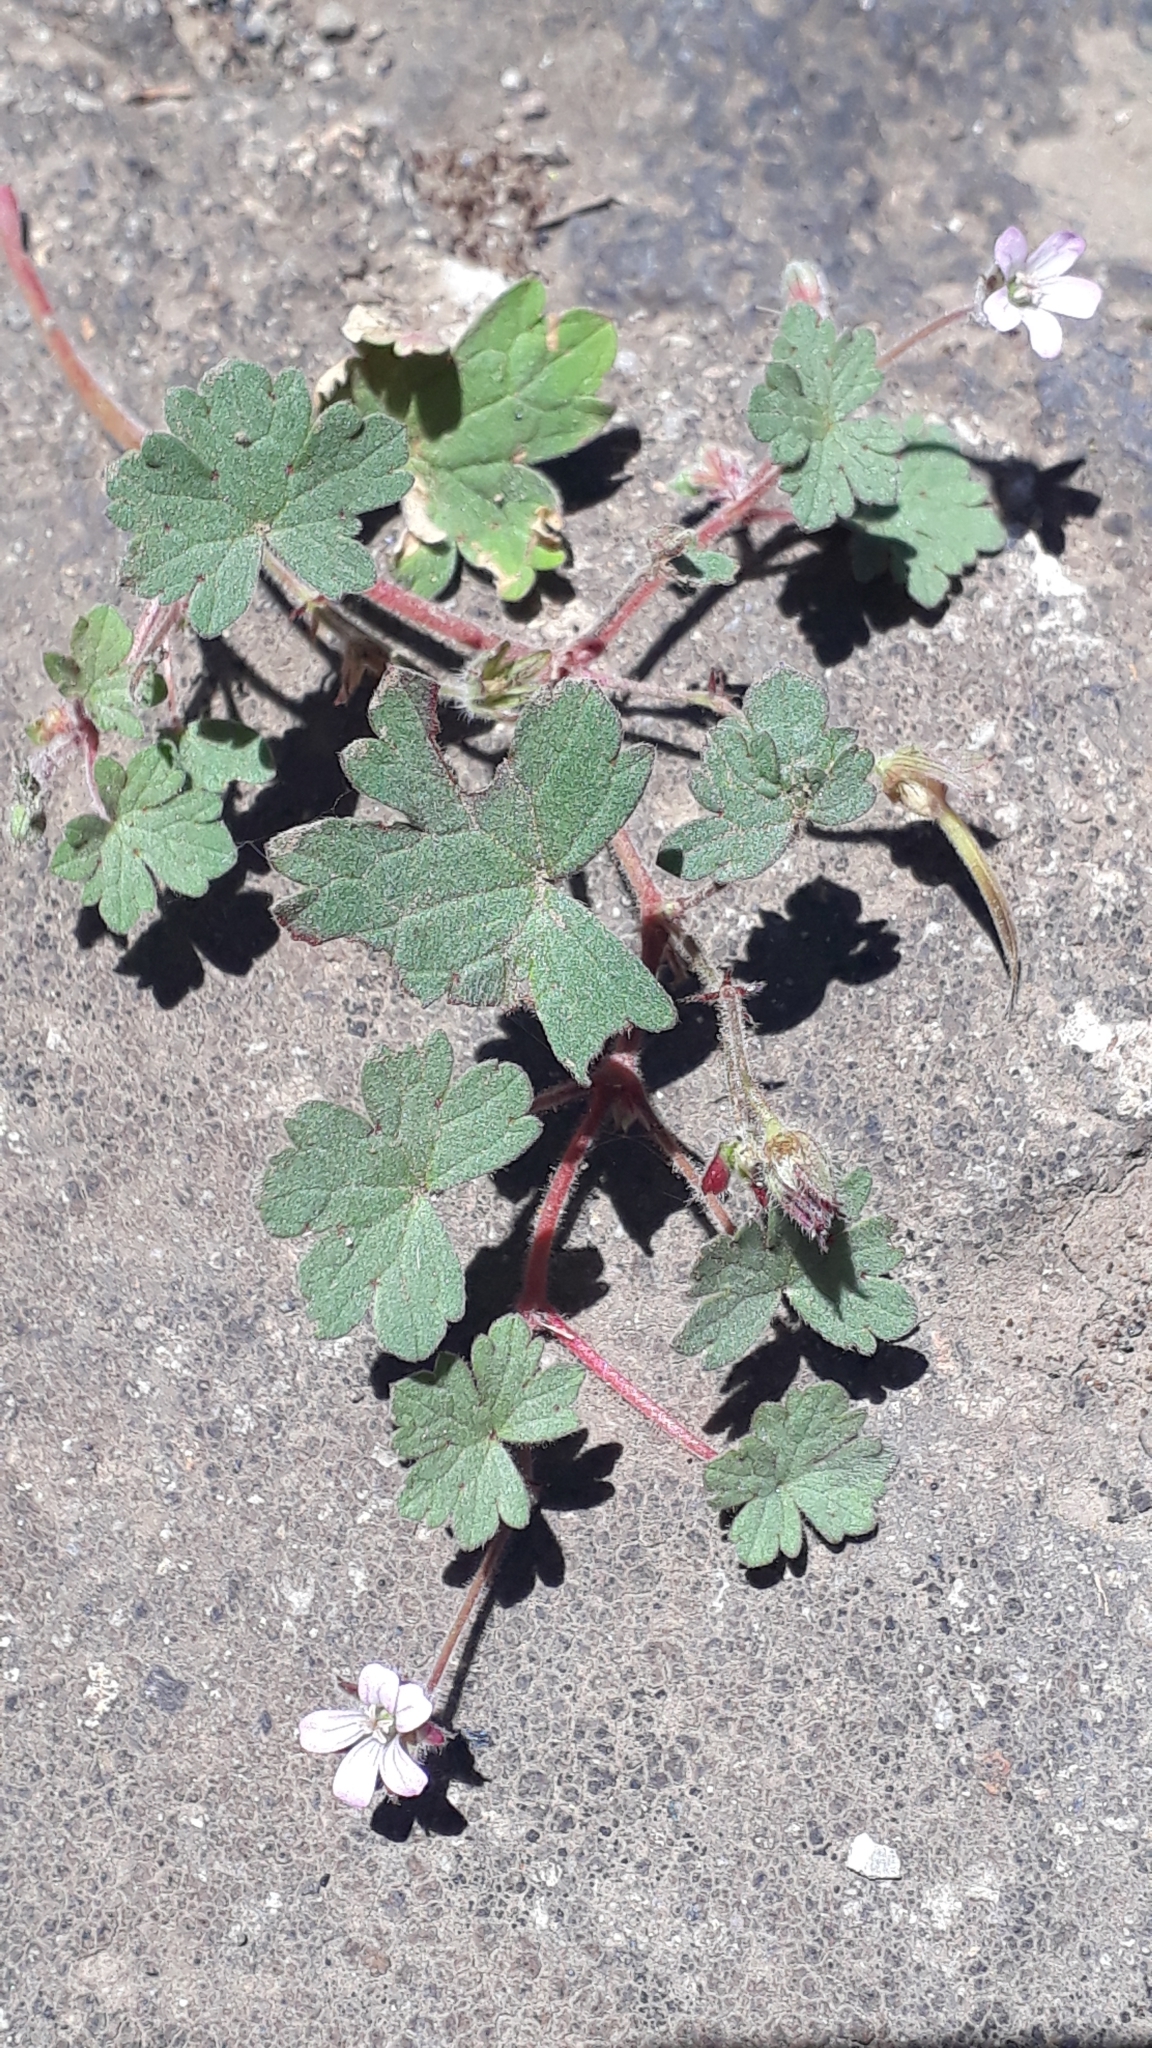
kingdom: Plantae
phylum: Tracheophyta
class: Magnoliopsida
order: Geraniales
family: Geraniaceae
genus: Geranium
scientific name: Geranium rotundifolium
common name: Round-leaved crane's-bill
